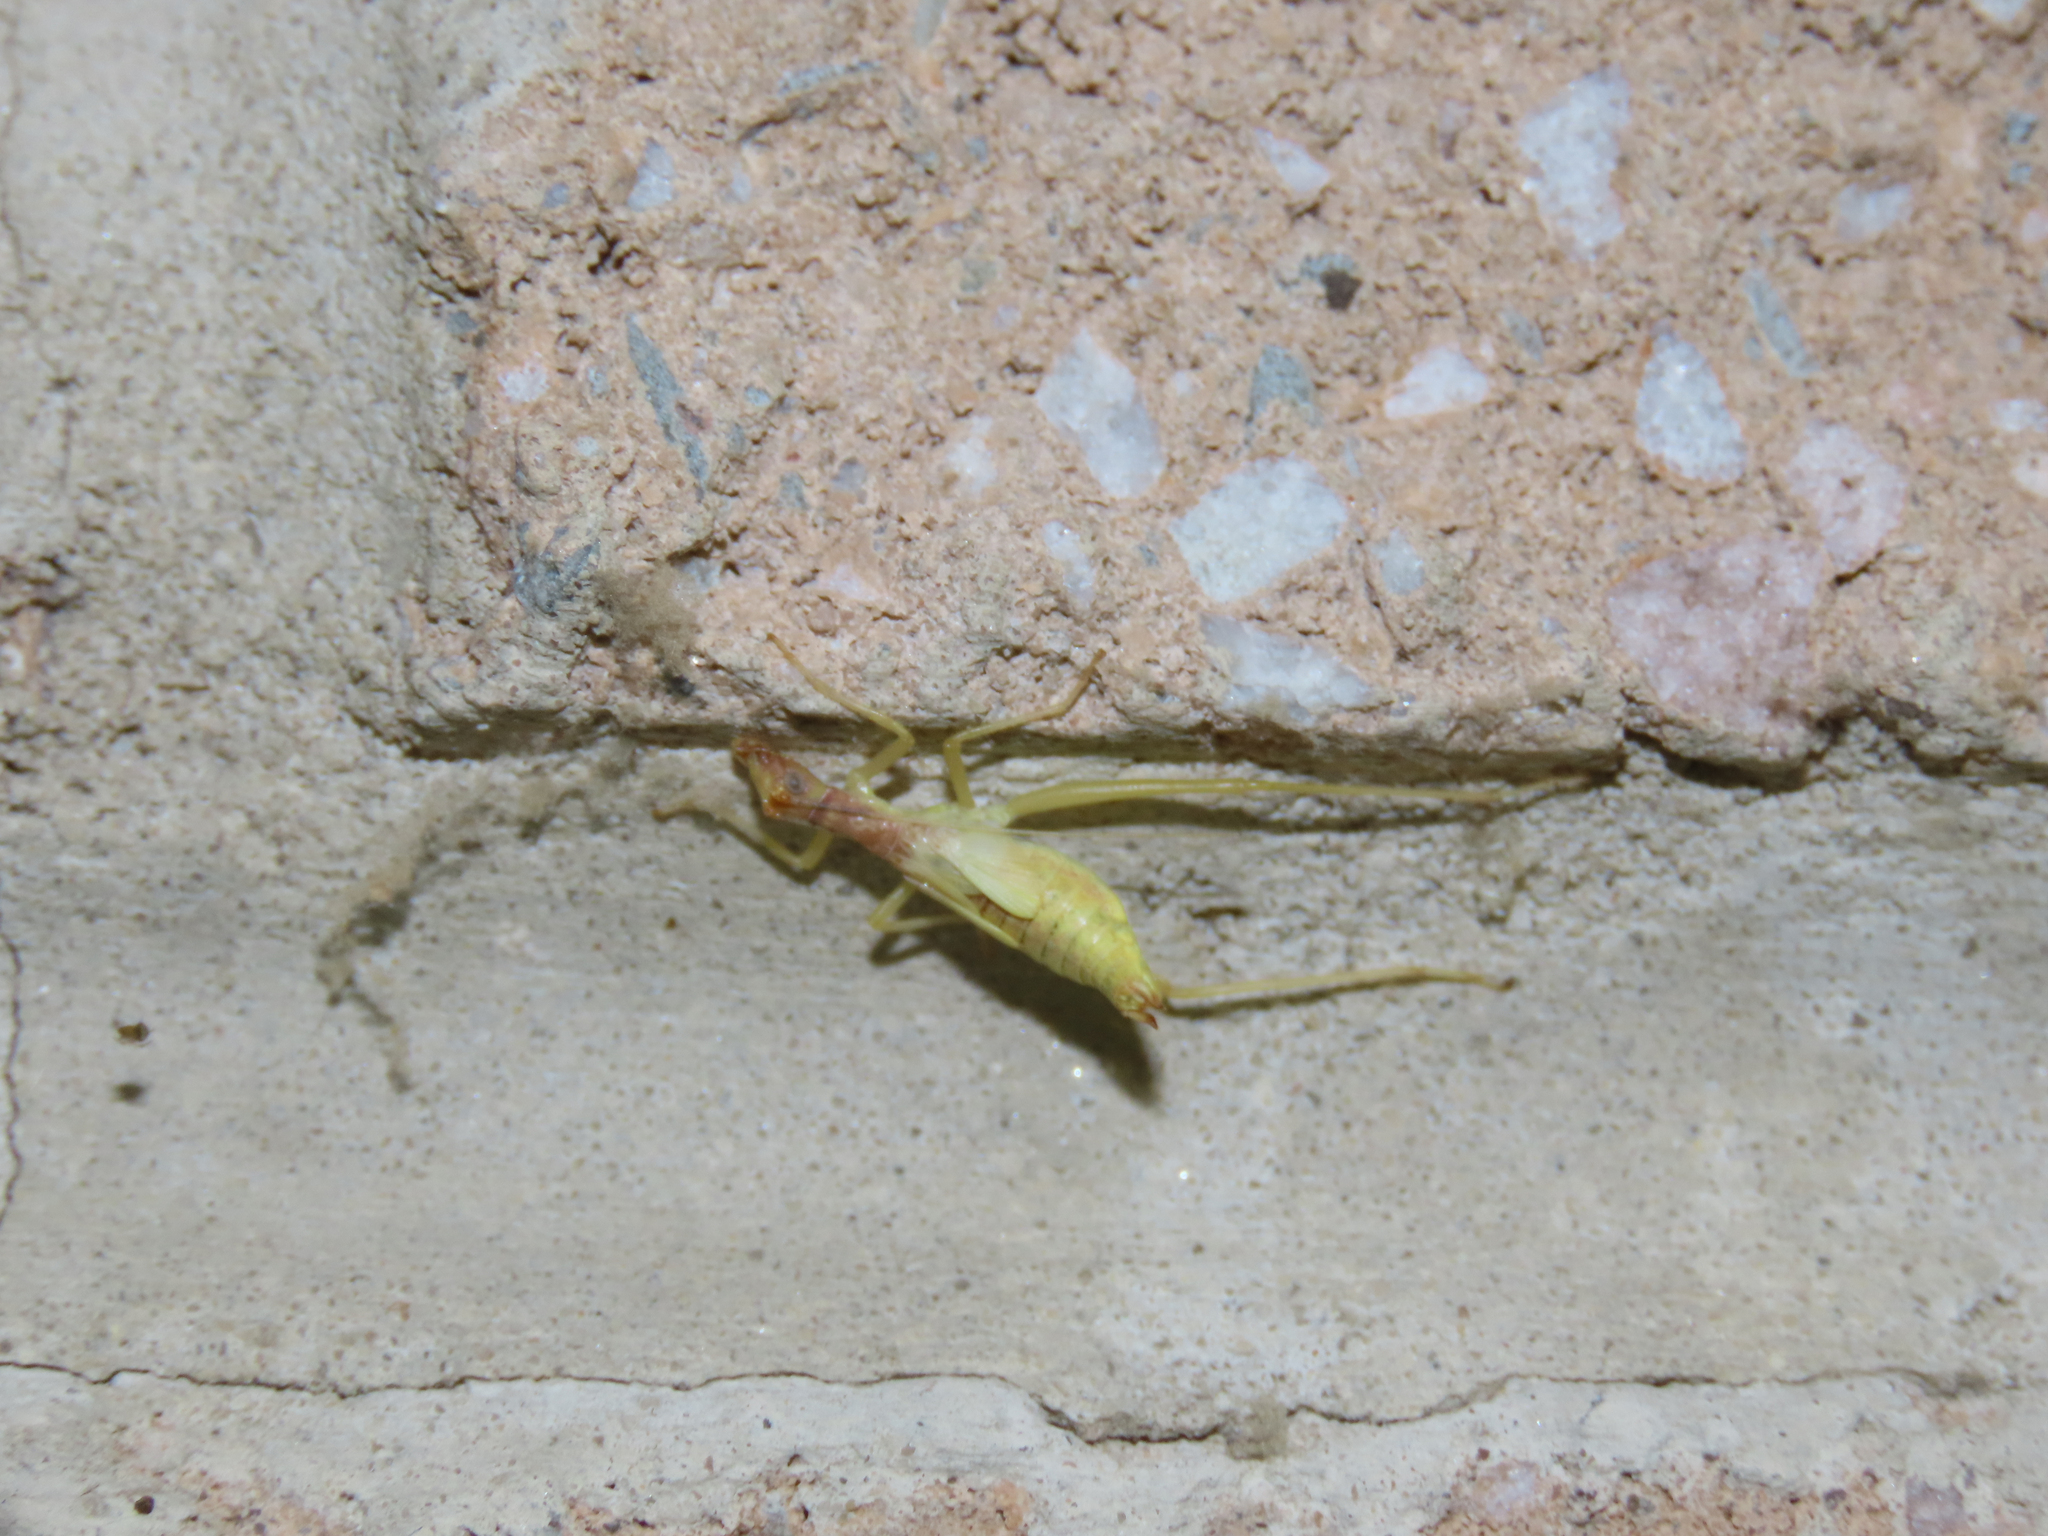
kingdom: Animalia
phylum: Arthropoda
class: Insecta
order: Orthoptera
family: Gryllidae
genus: Neoxabea
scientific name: Neoxabea bipunctata
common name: Two-spotted tree cricket
